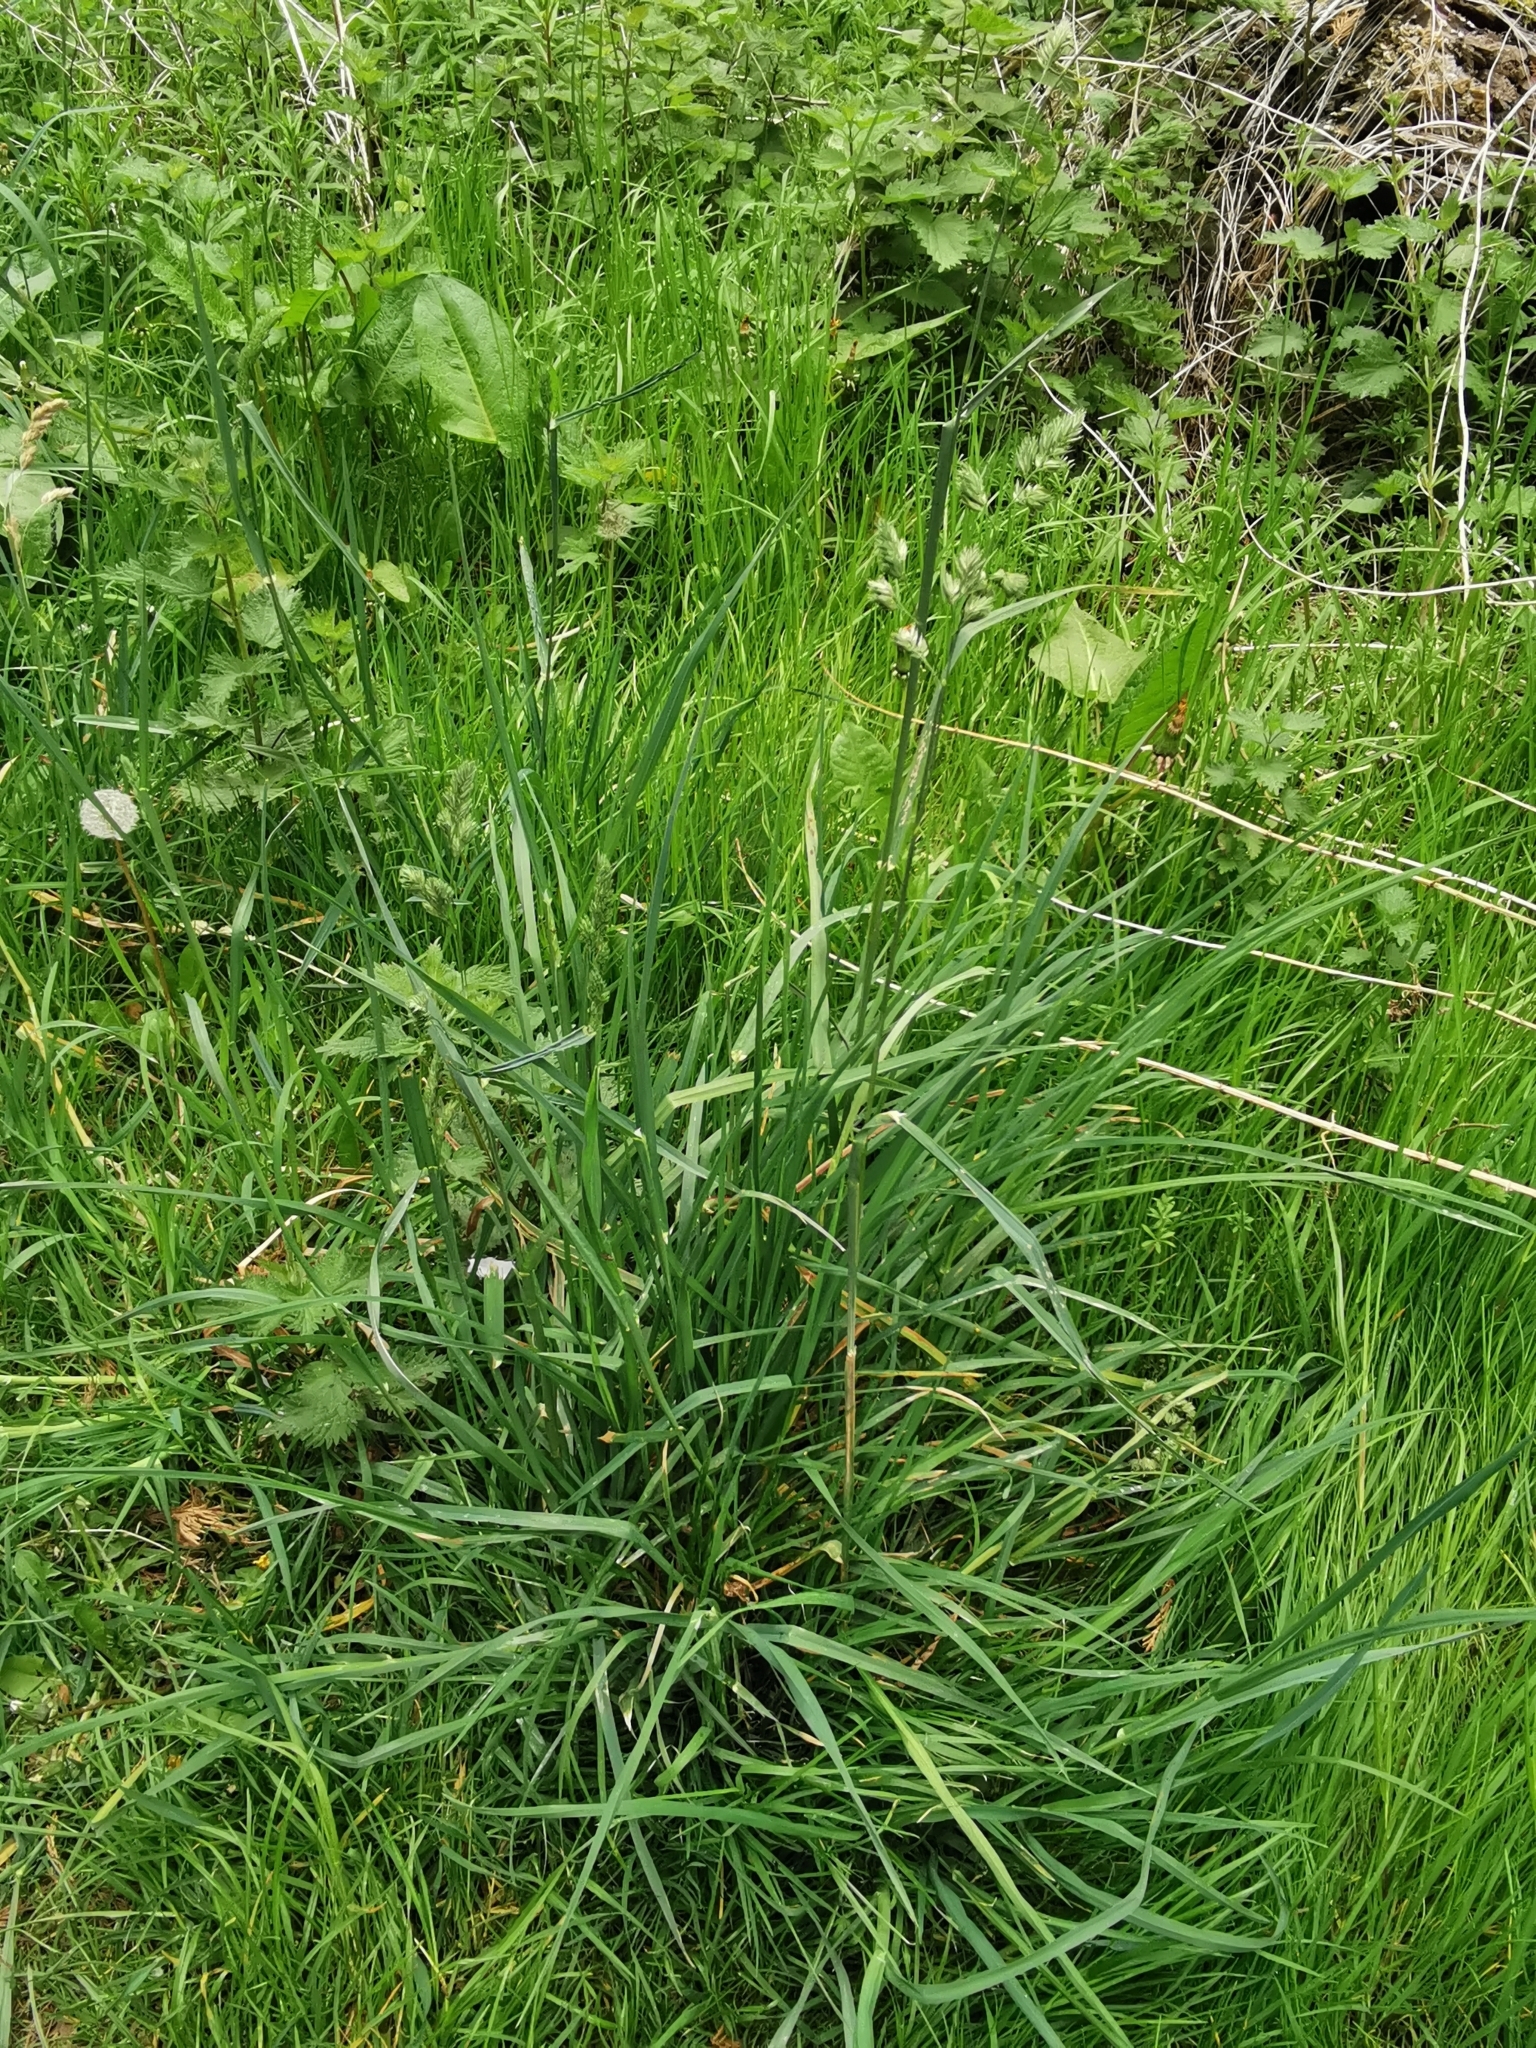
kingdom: Plantae
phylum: Tracheophyta
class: Liliopsida
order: Poales
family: Poaceae
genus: Dactylis
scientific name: Dactylis glomerata
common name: Orchardgrass
